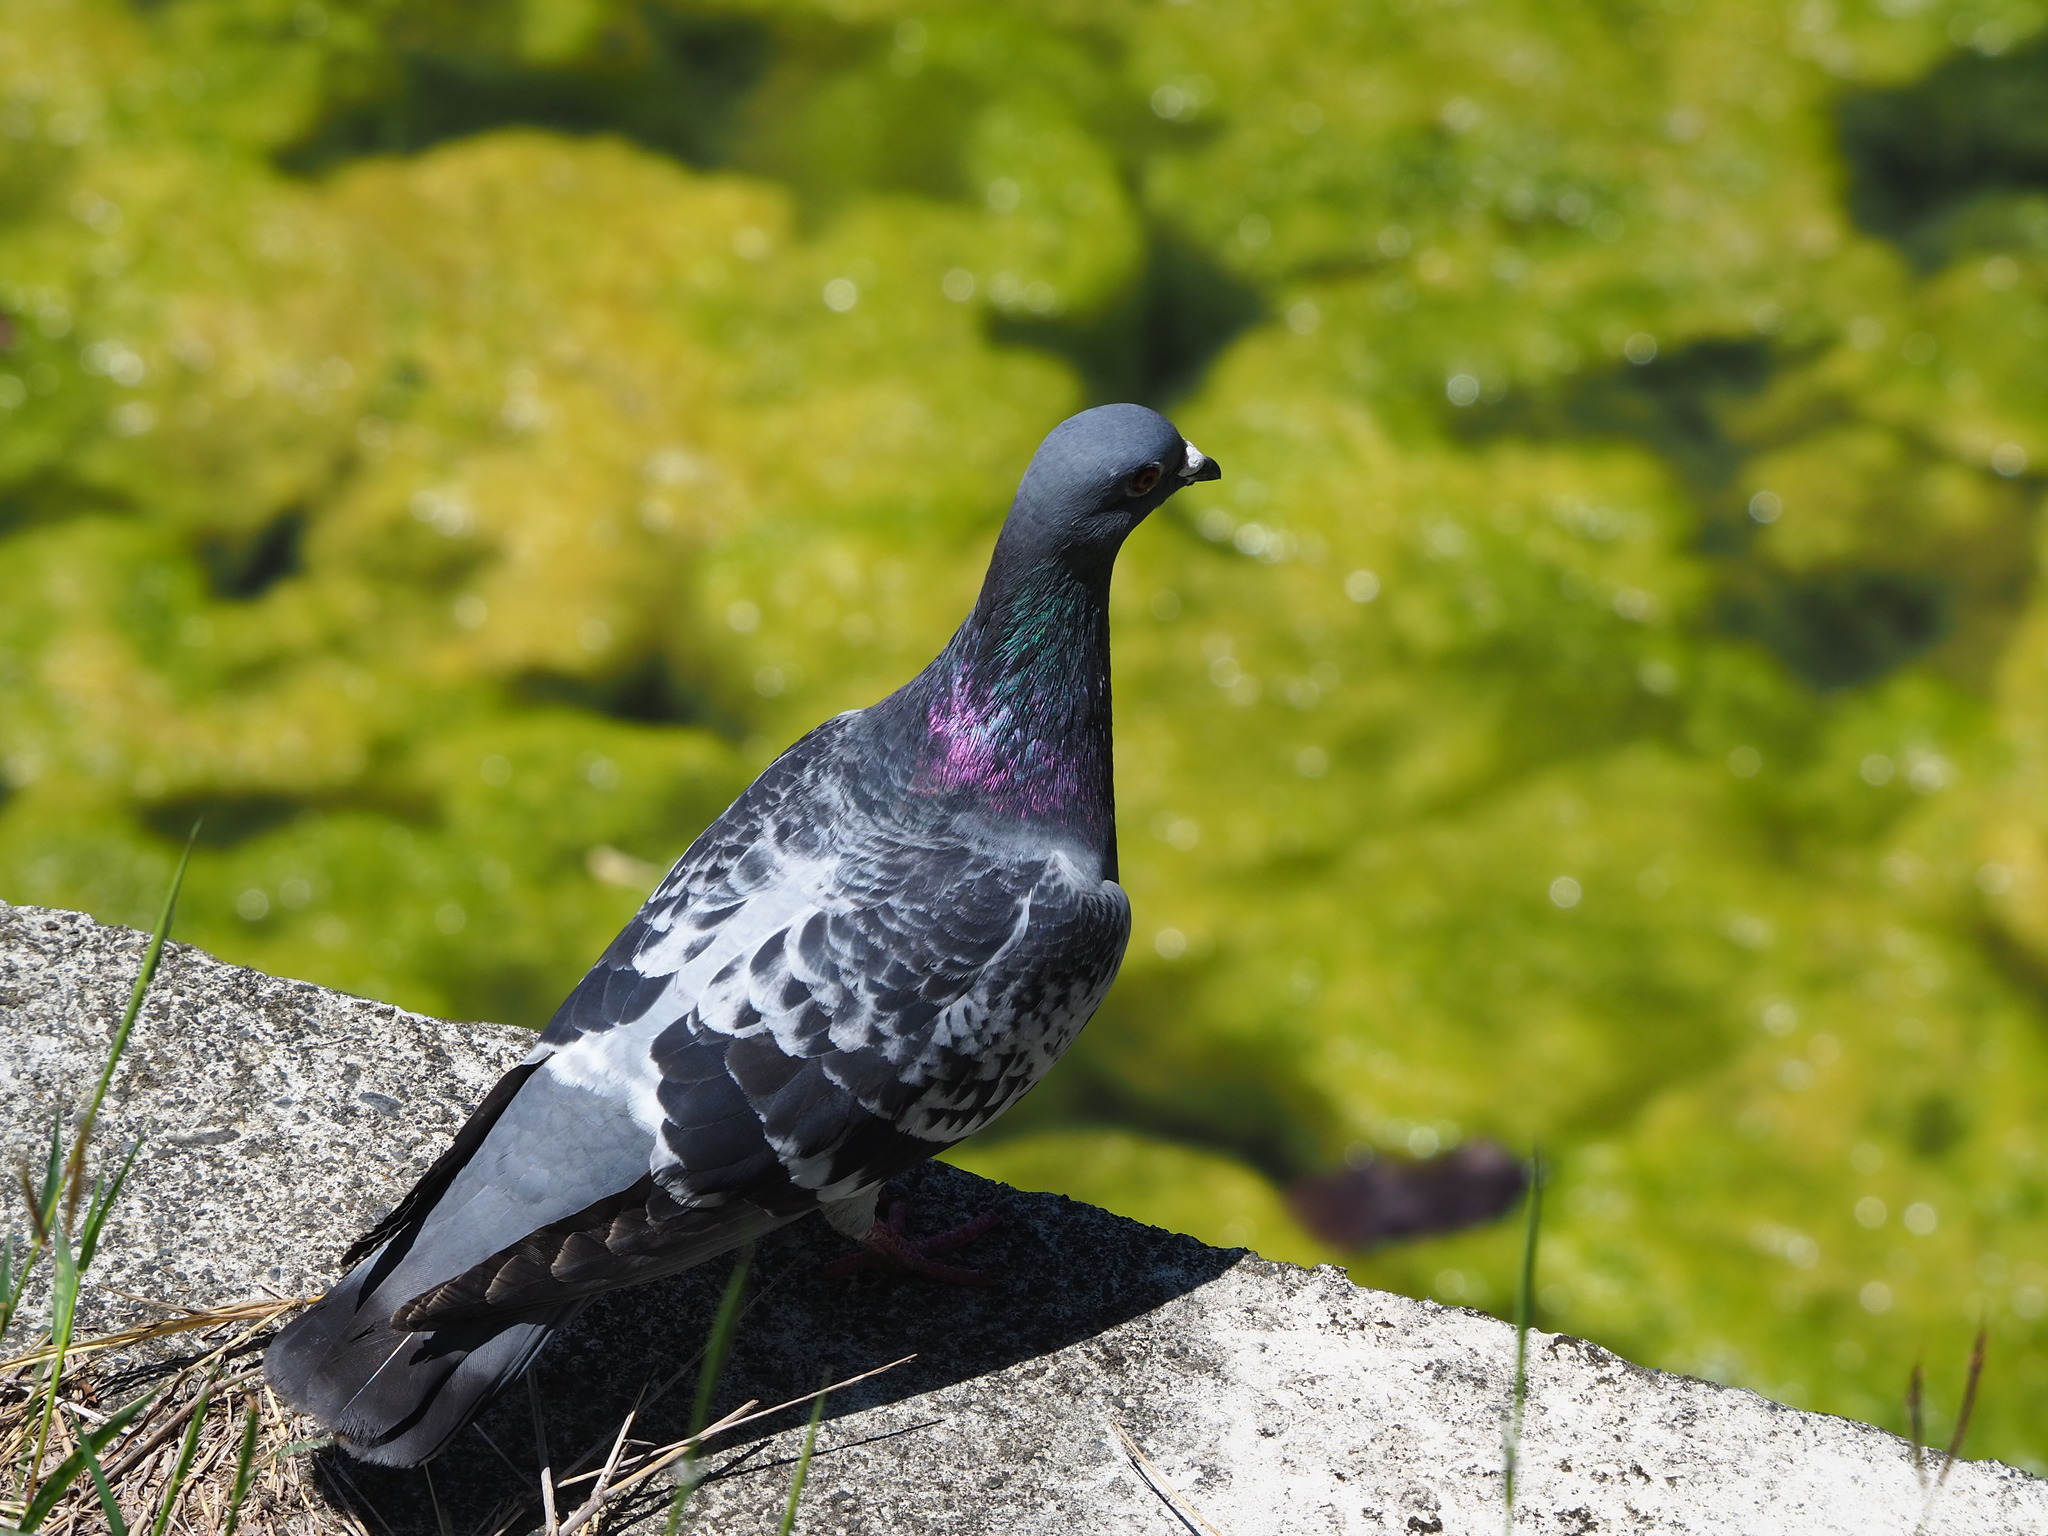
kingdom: Animalia
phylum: Chordata
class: Aves
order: Columbiformes
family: Columbidae
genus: Columba
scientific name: Columba livia
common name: Rock pigeon
